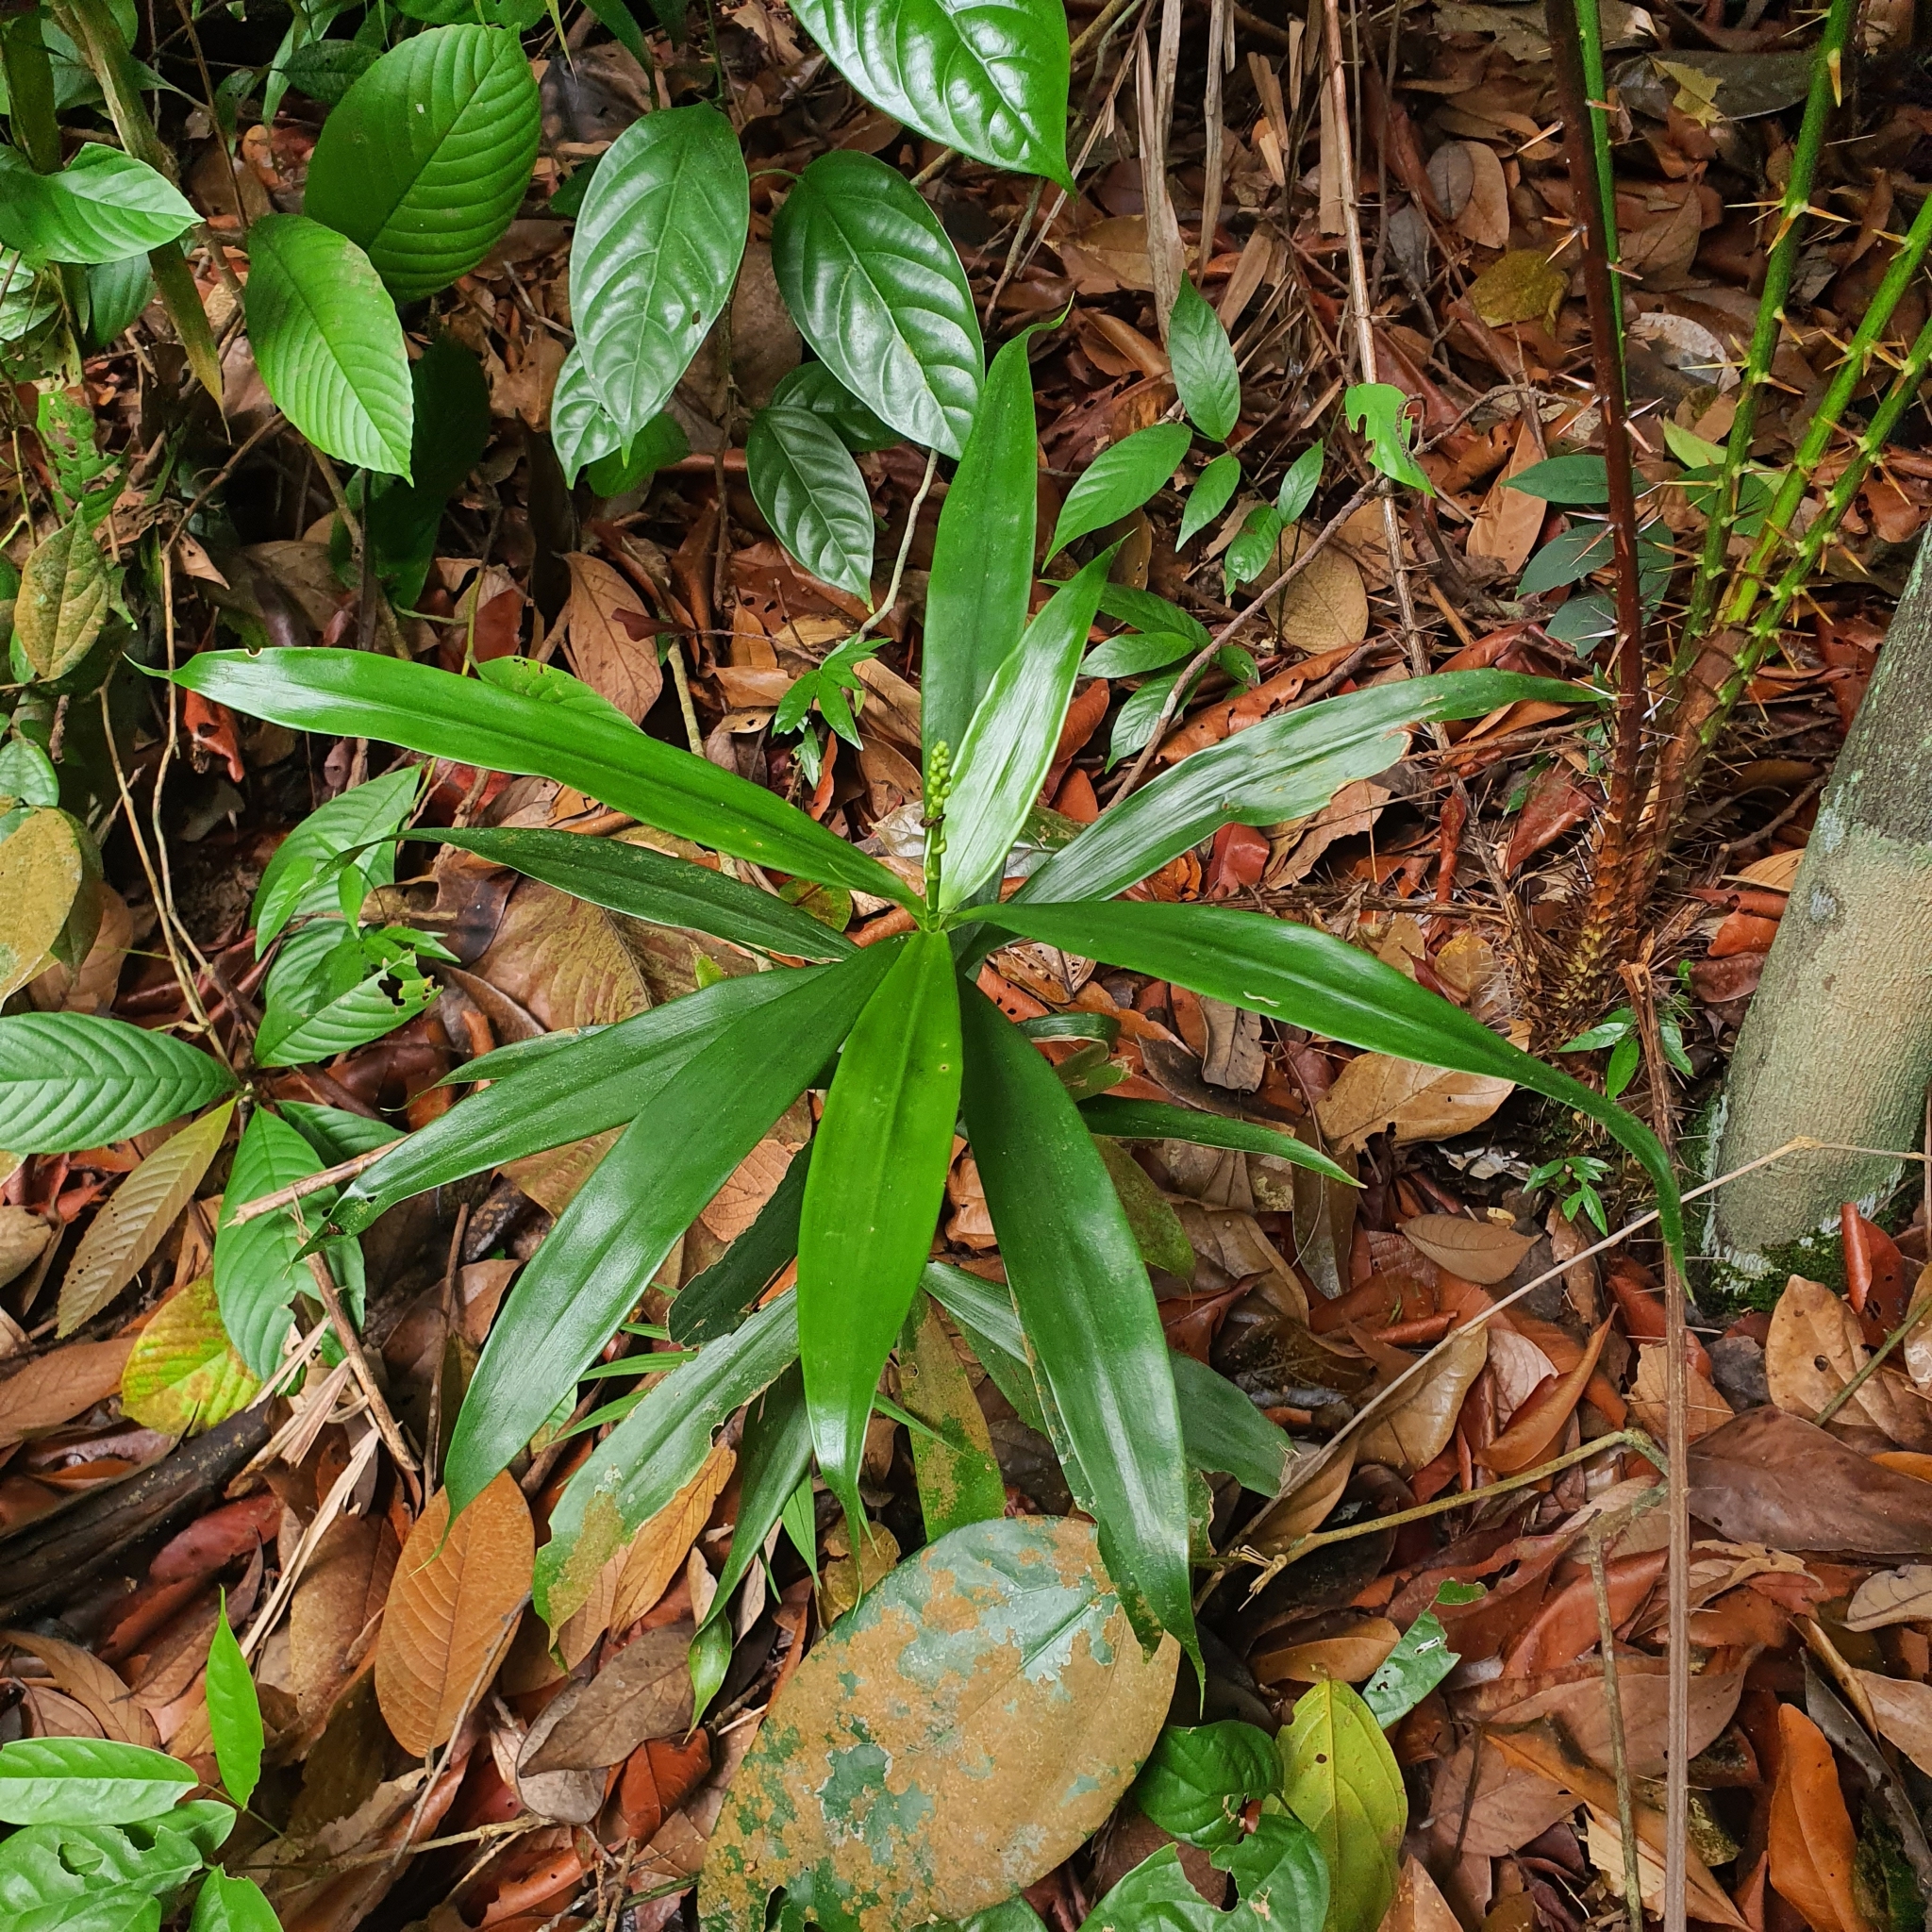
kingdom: Plantae
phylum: Tracheophyta
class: Liliopsida
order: Asparagales
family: Asparagaceae
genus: Dracaena
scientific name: Dracaena porteri
